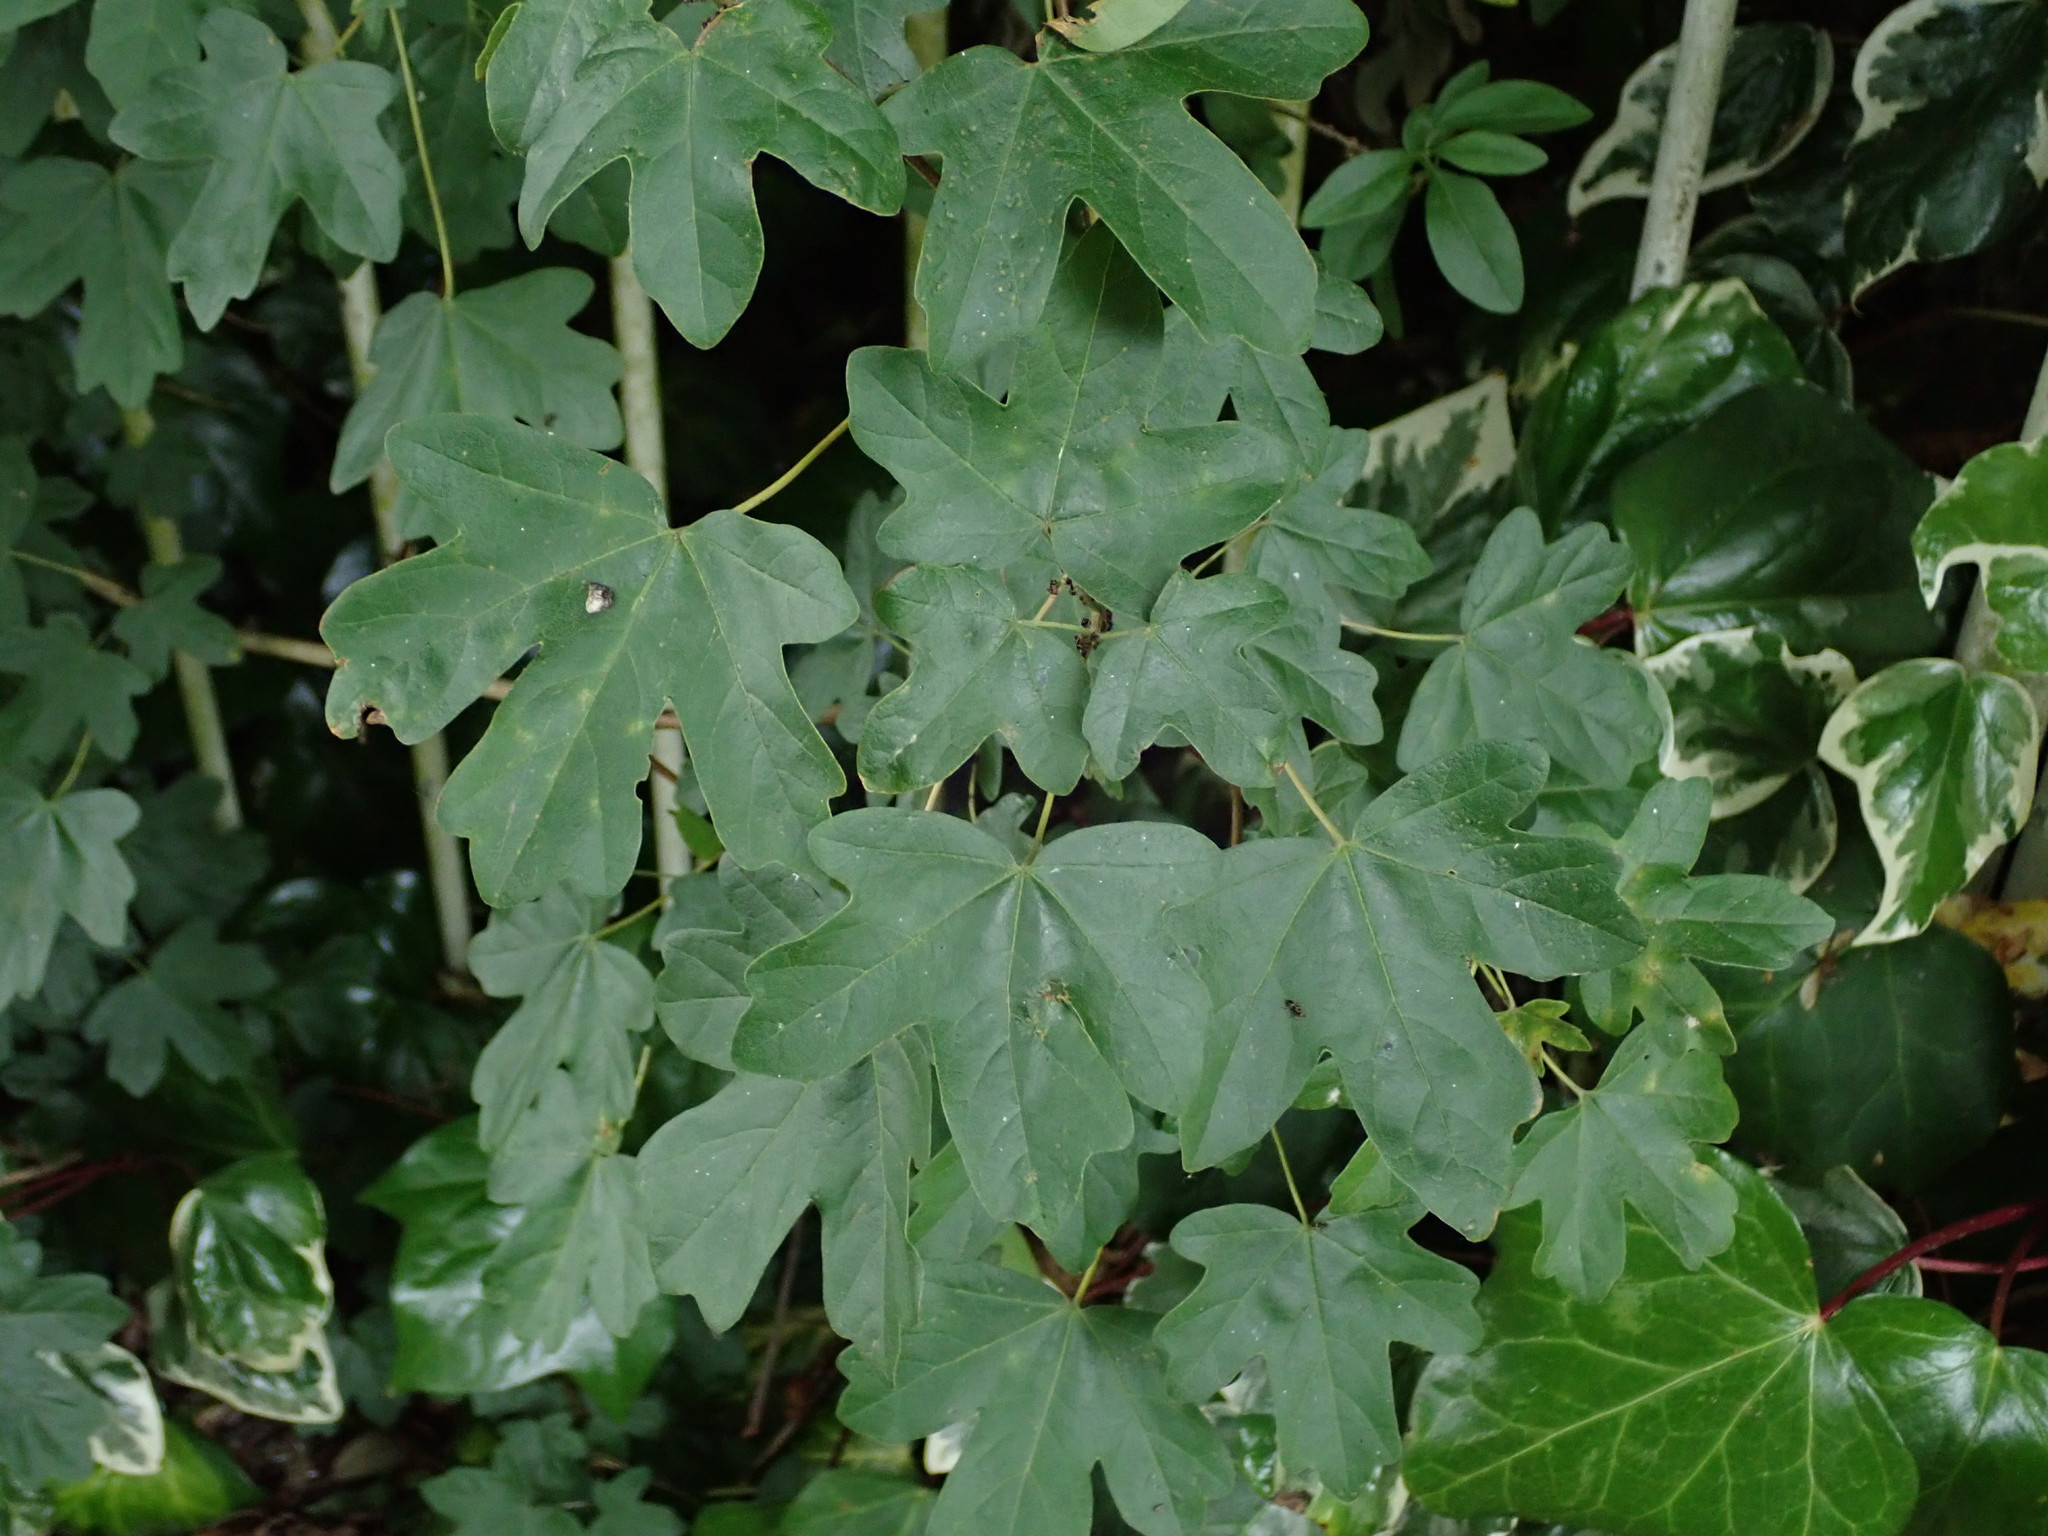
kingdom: Plantae
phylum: Tracheophyta
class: Magnoliopsida
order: Sapindales
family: Sapindaceae
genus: Acer
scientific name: Acer campestre
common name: Field maple
